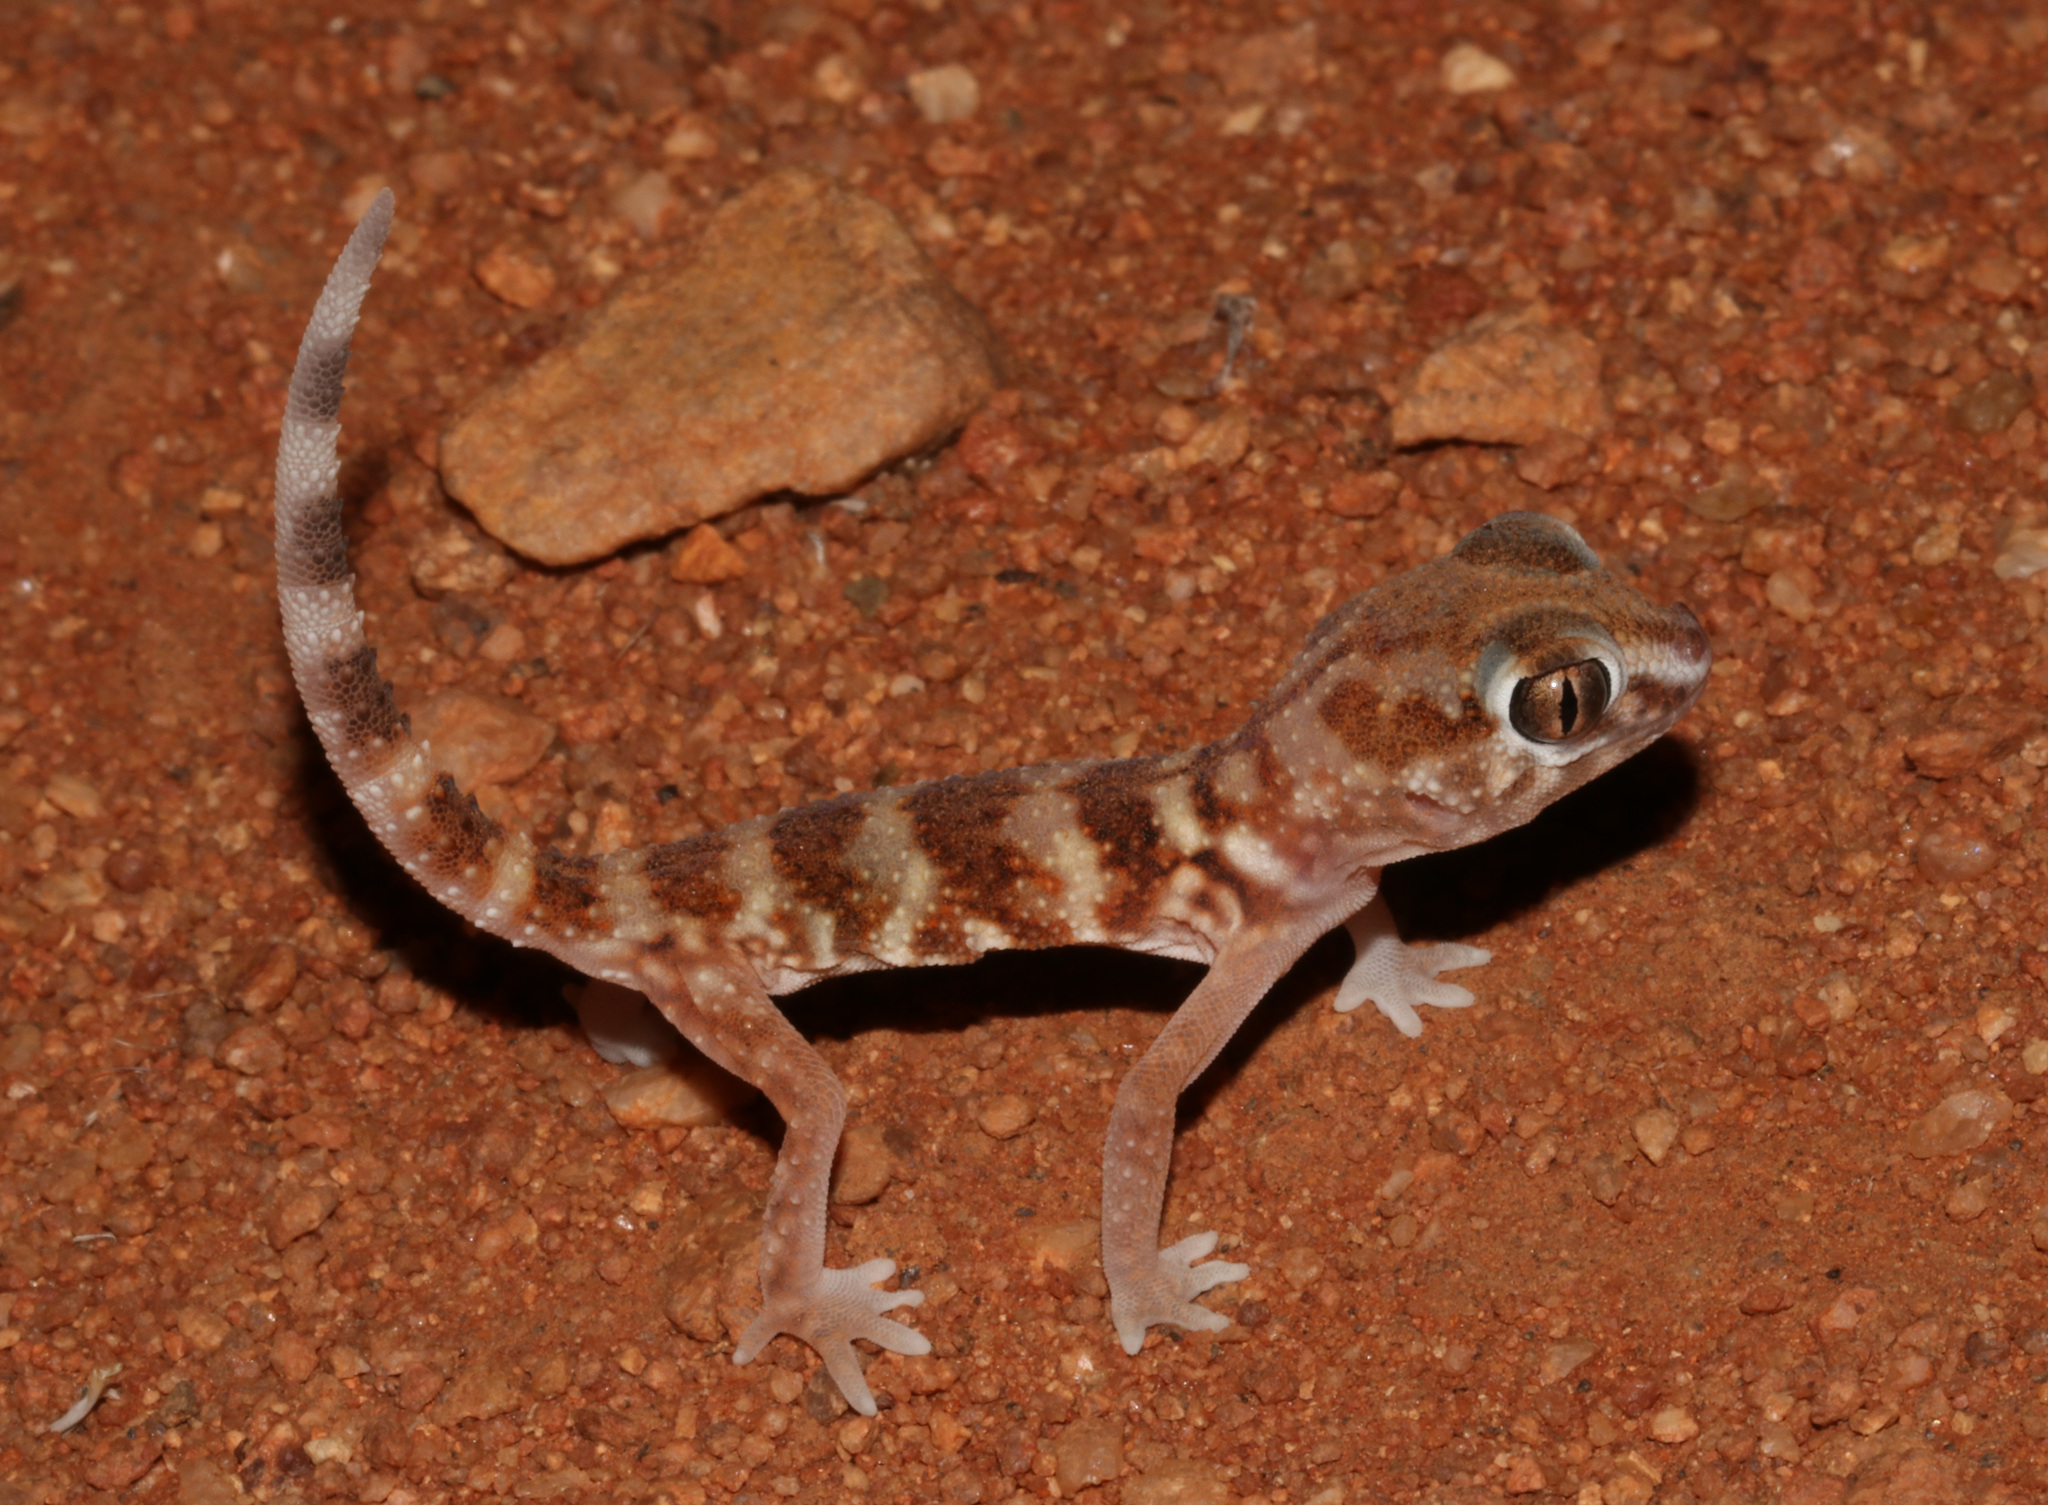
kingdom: Animalia
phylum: Chordata
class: Squamata
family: Gekkonidae
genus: Chondrodactylus
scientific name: Chondrodactylus angulifer
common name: Common giant ground gecko
